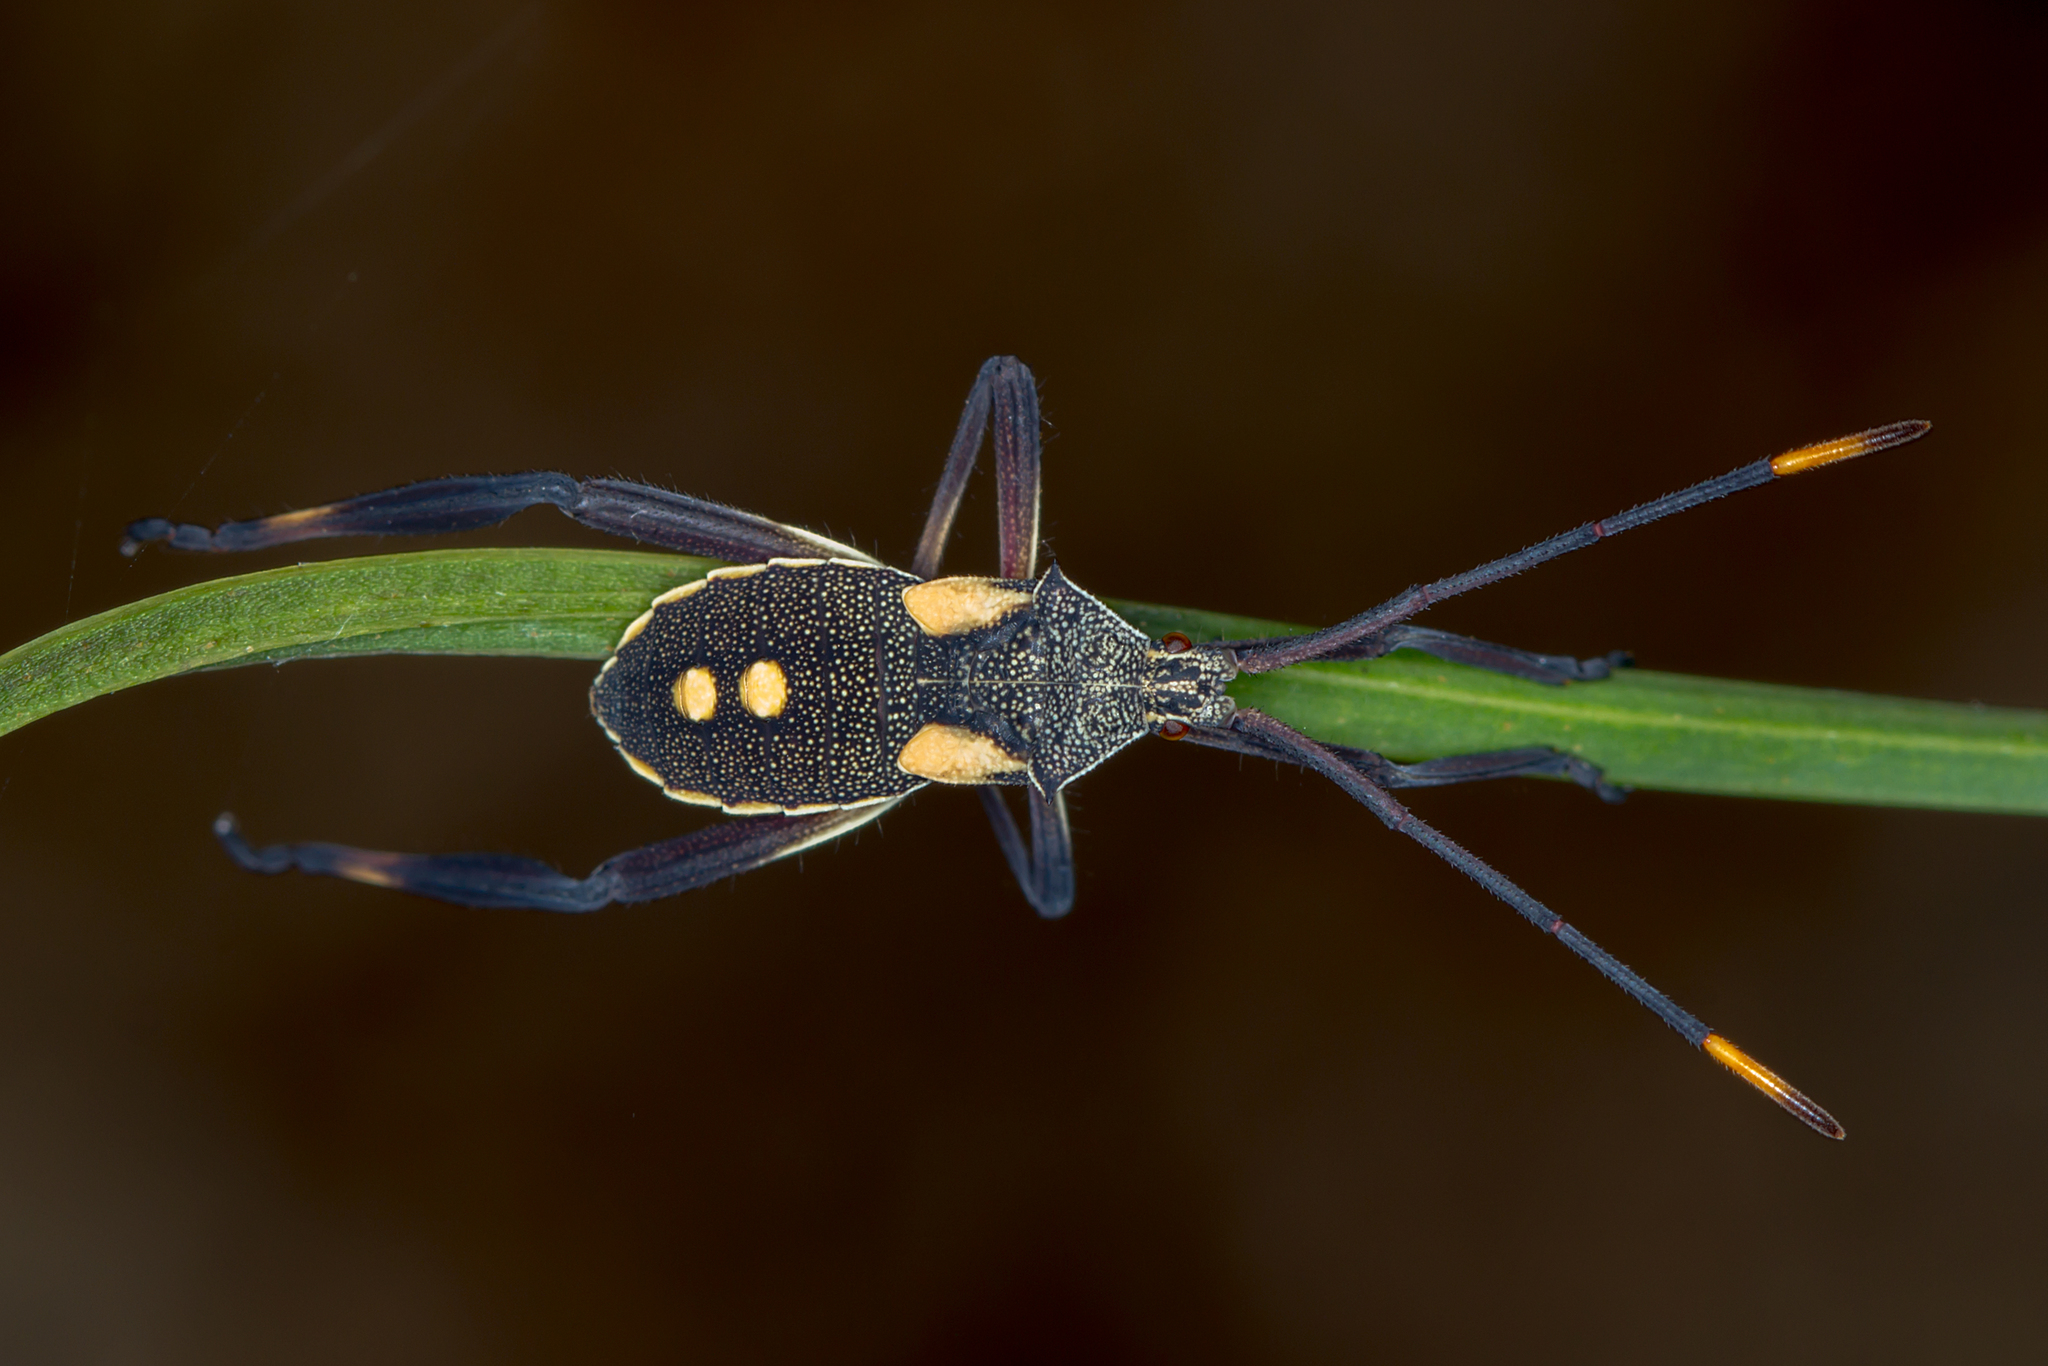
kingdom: Animalia
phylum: Arthropoda
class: Insecta
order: Hemiptera
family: Coreidae
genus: Mictis
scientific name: Mictis profana
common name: Crusader bug
